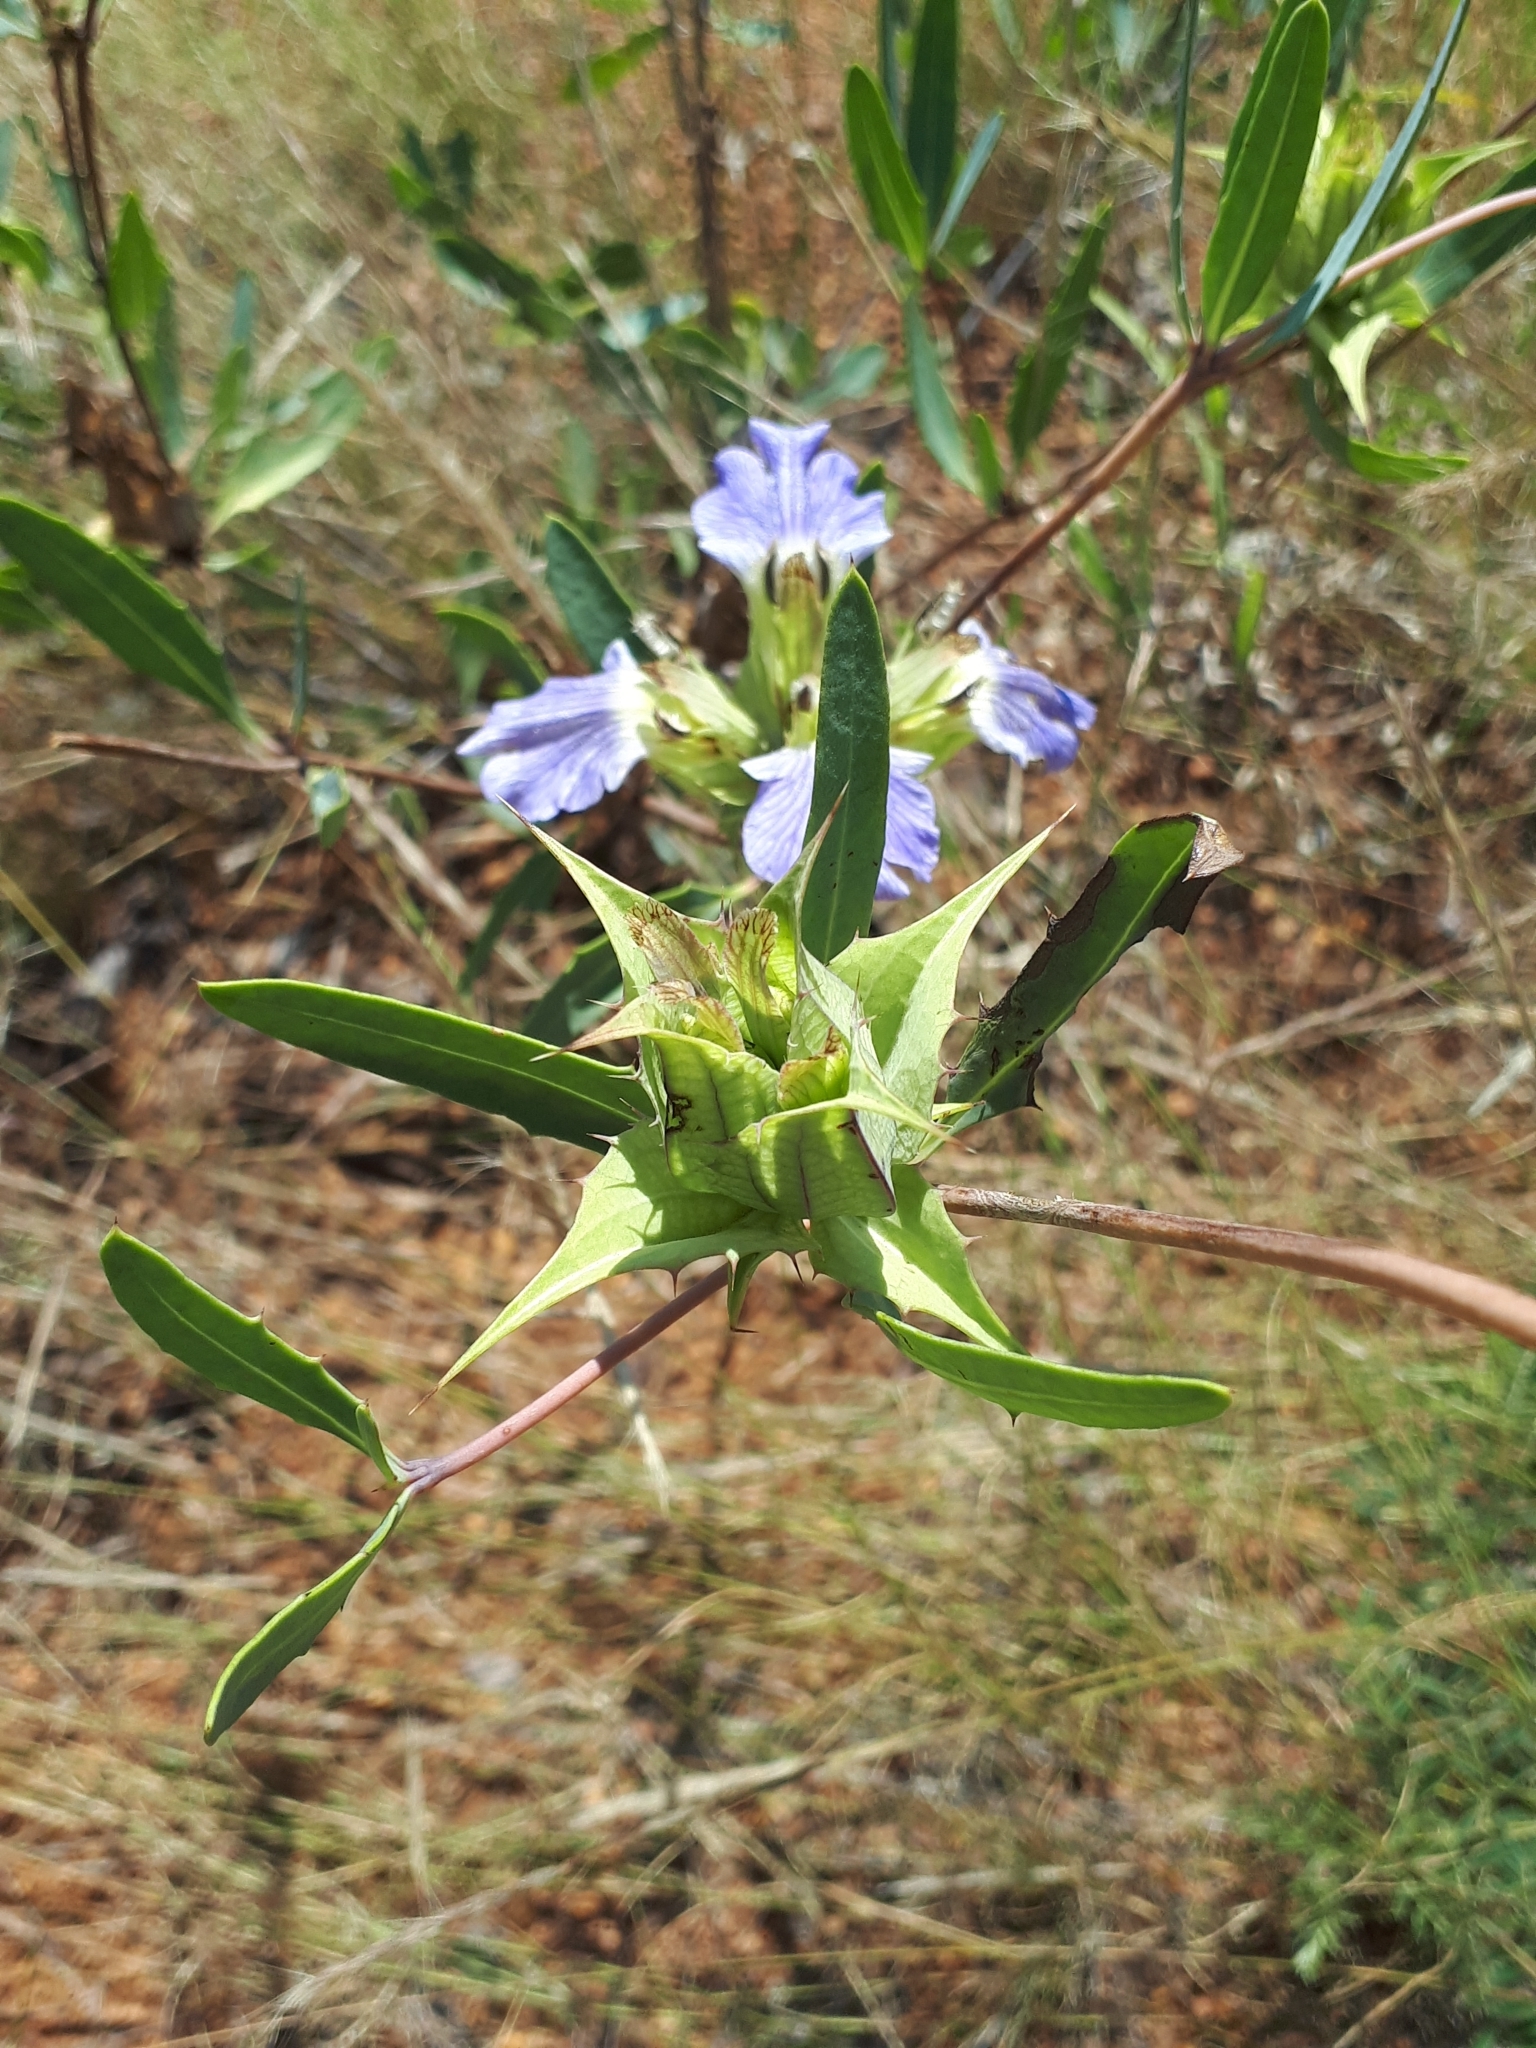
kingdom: Plantae
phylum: Tracheophyta
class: Magnoliopsida
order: Lamiales
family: Acanthaceae
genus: Blepharis
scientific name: Blepharis breyeri
